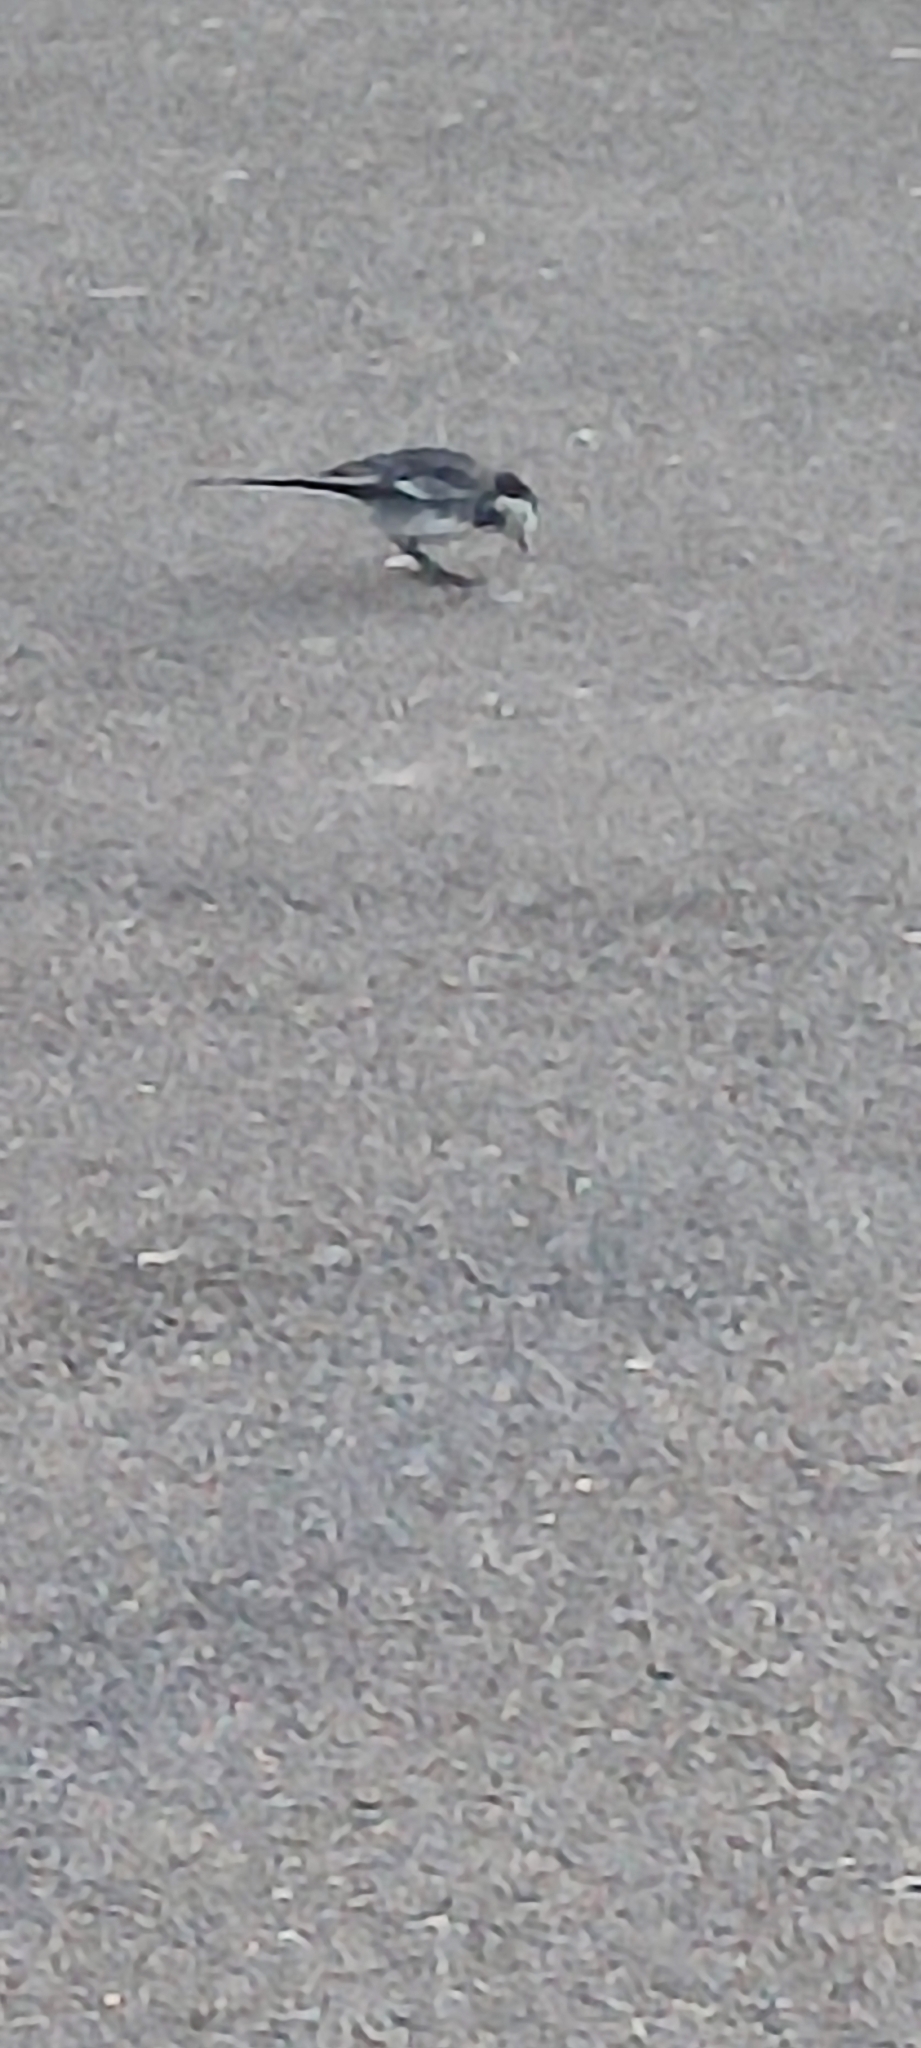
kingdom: Animalia
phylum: Chordata
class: Aves
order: Passeriformes
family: Motacillidae
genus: Motacilla
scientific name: Motacilla alba
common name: White wagtail
